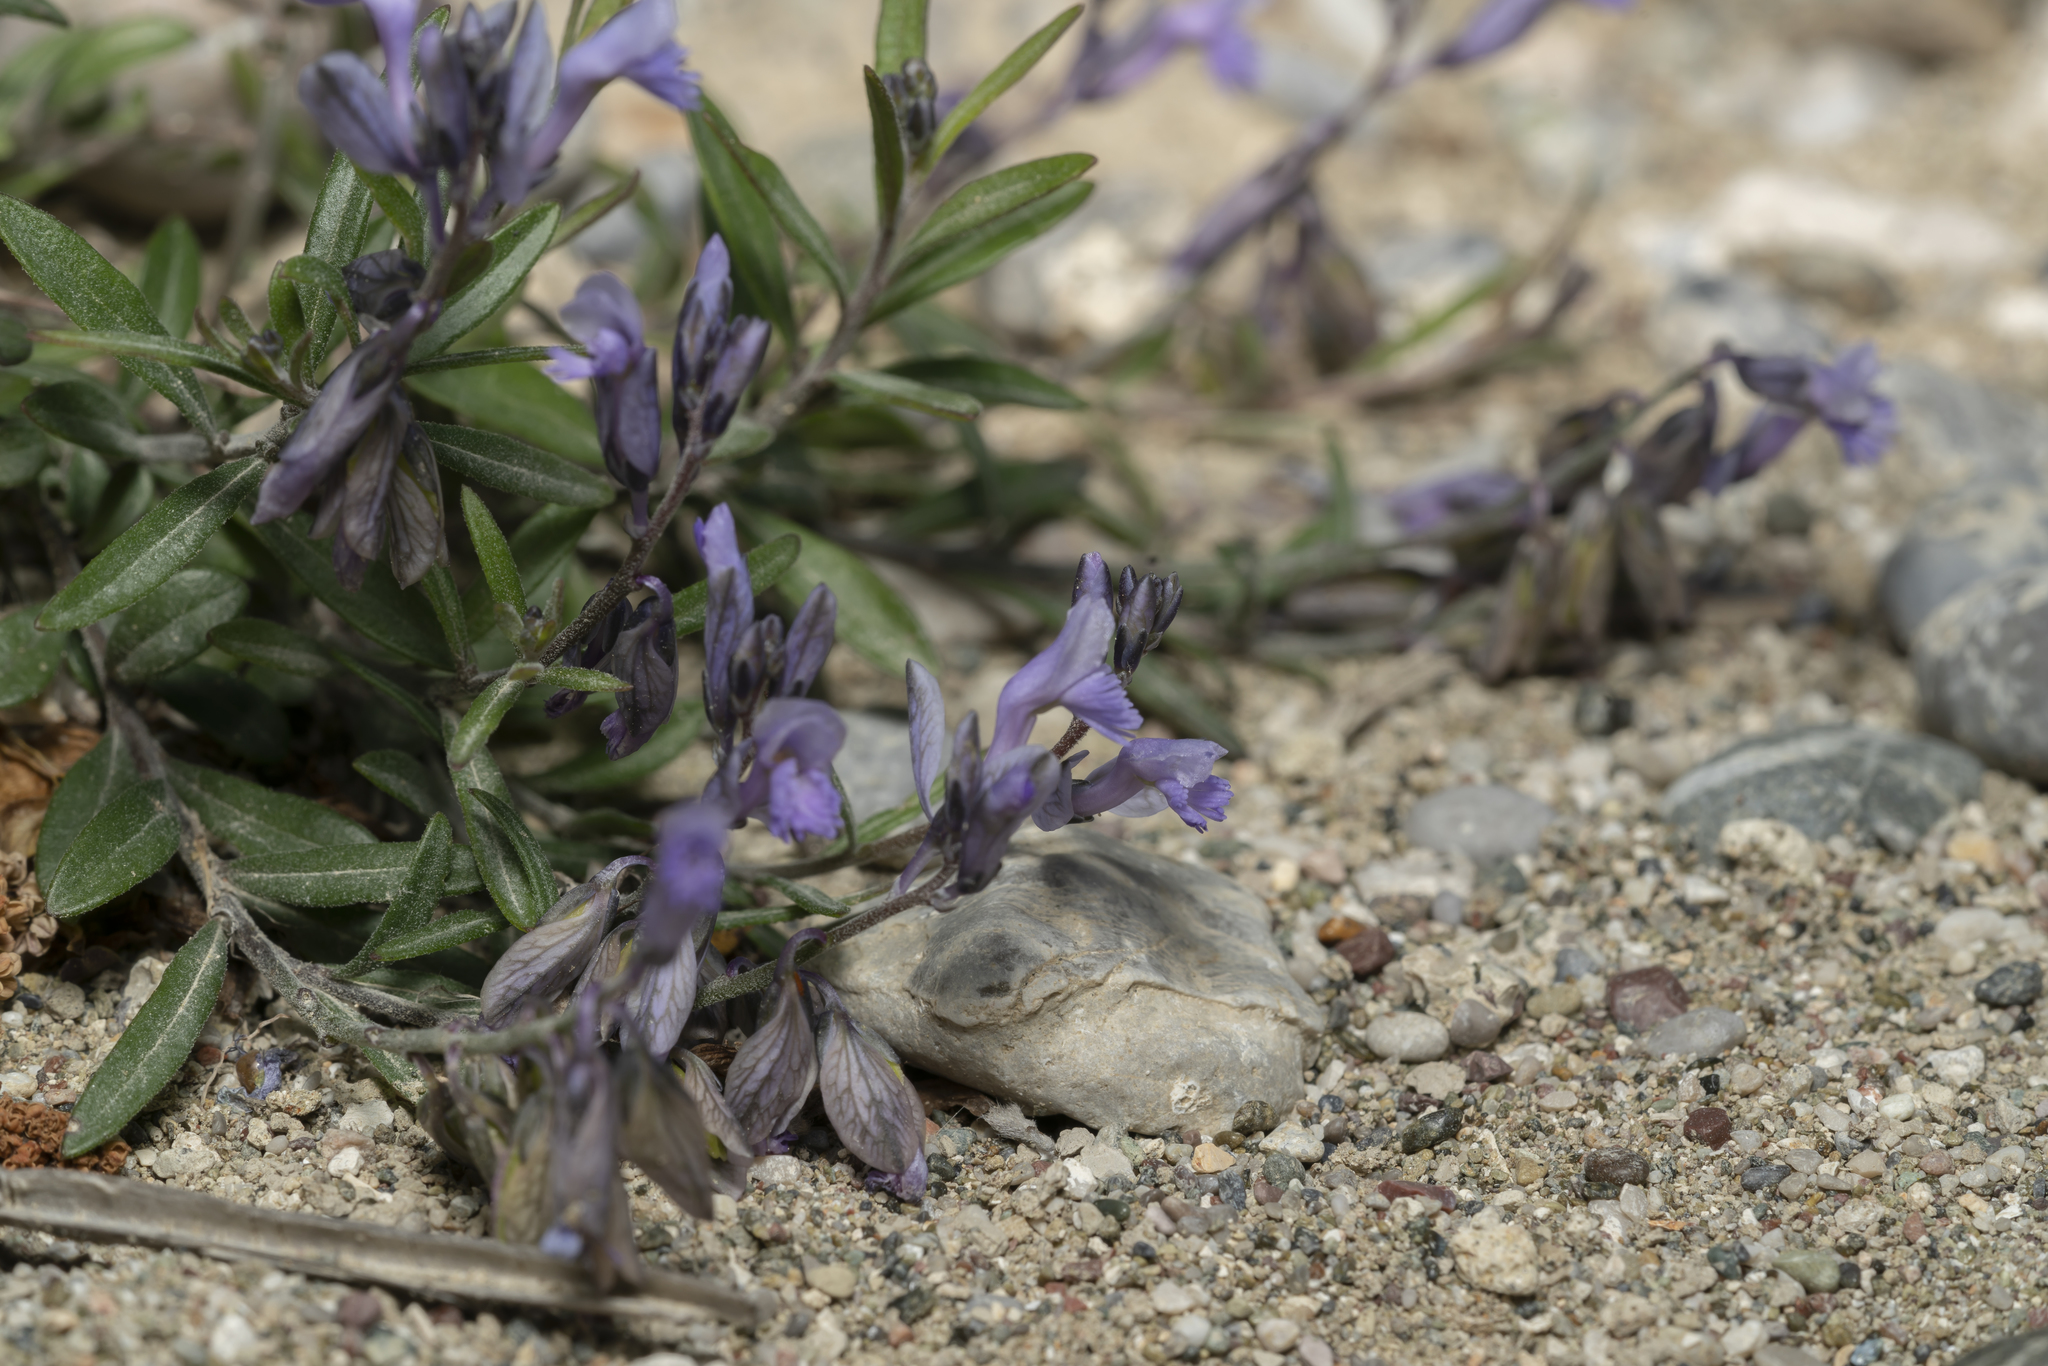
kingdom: Plantae
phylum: Tracheophyta
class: Magnoliopsida
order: Fabales
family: Polygalaceae
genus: Polygala
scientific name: Polygala venulosa
